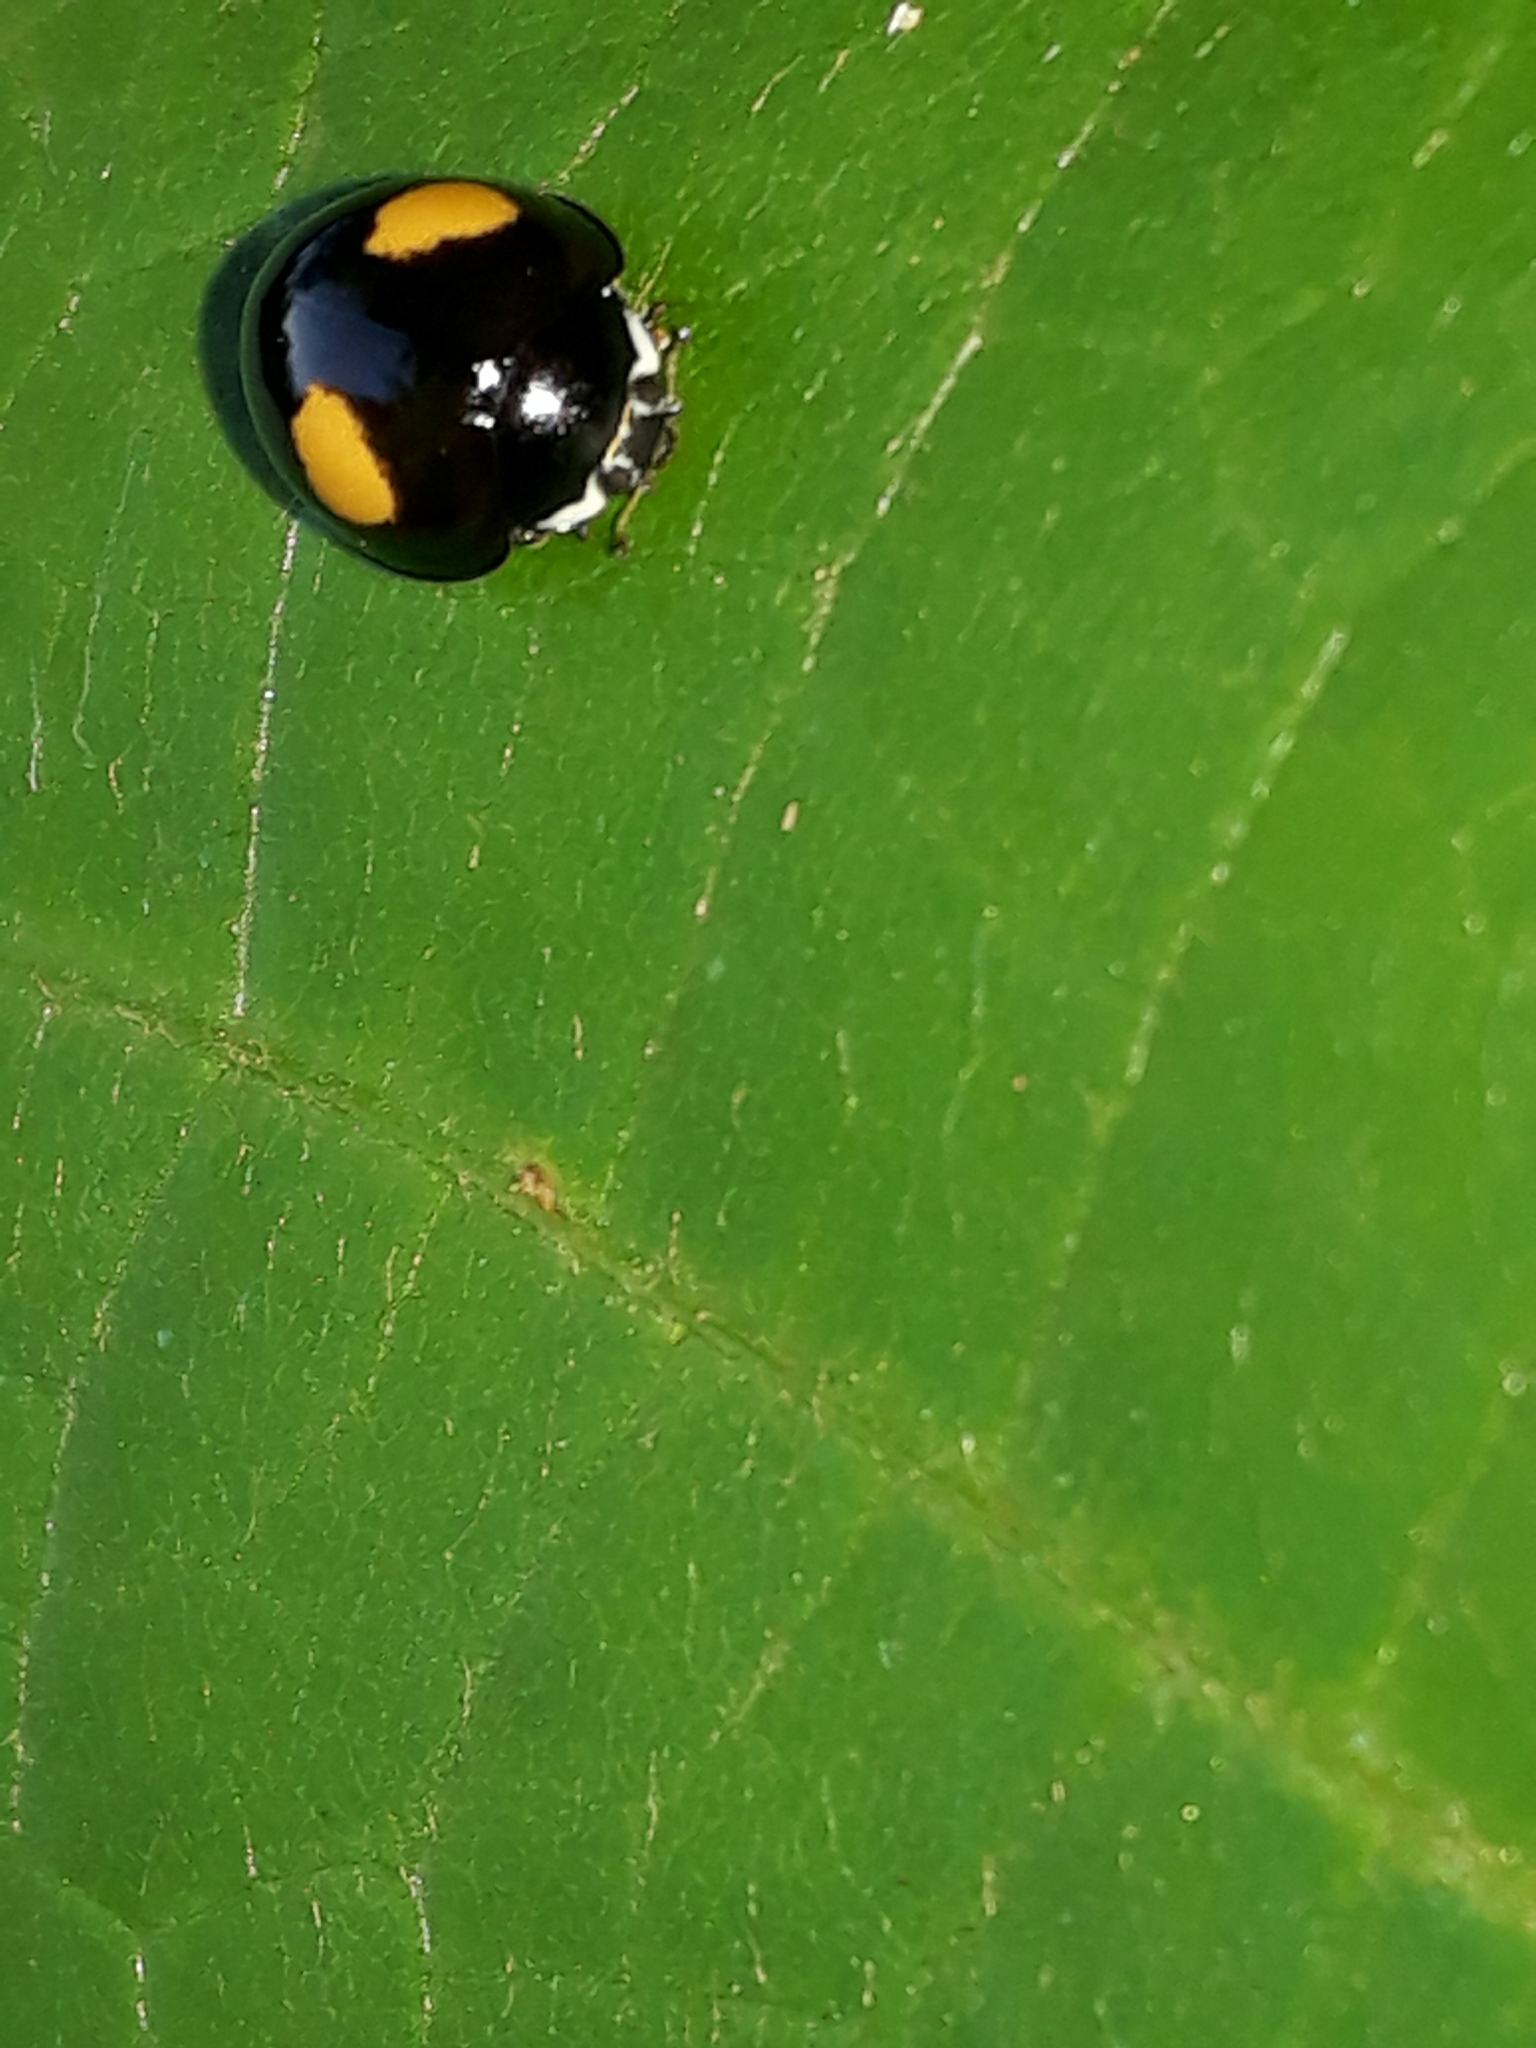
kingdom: Animalia
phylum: Arthropoda
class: Insecta
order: Coleoptera
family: Coccinellidae
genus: Olla
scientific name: Olla v-nigrum
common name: Ashy gray lady beetle
